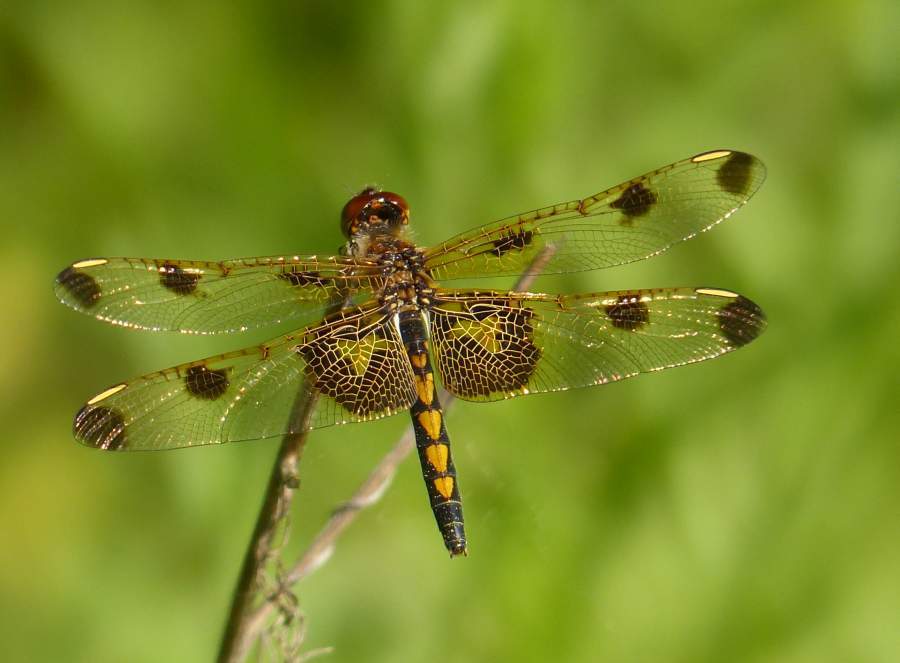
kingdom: Animalia
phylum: Arthropoda
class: Insecta
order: Odonata
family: Libellulidae
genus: Celithemis
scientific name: Celithemis elisa
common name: Calico pennant
